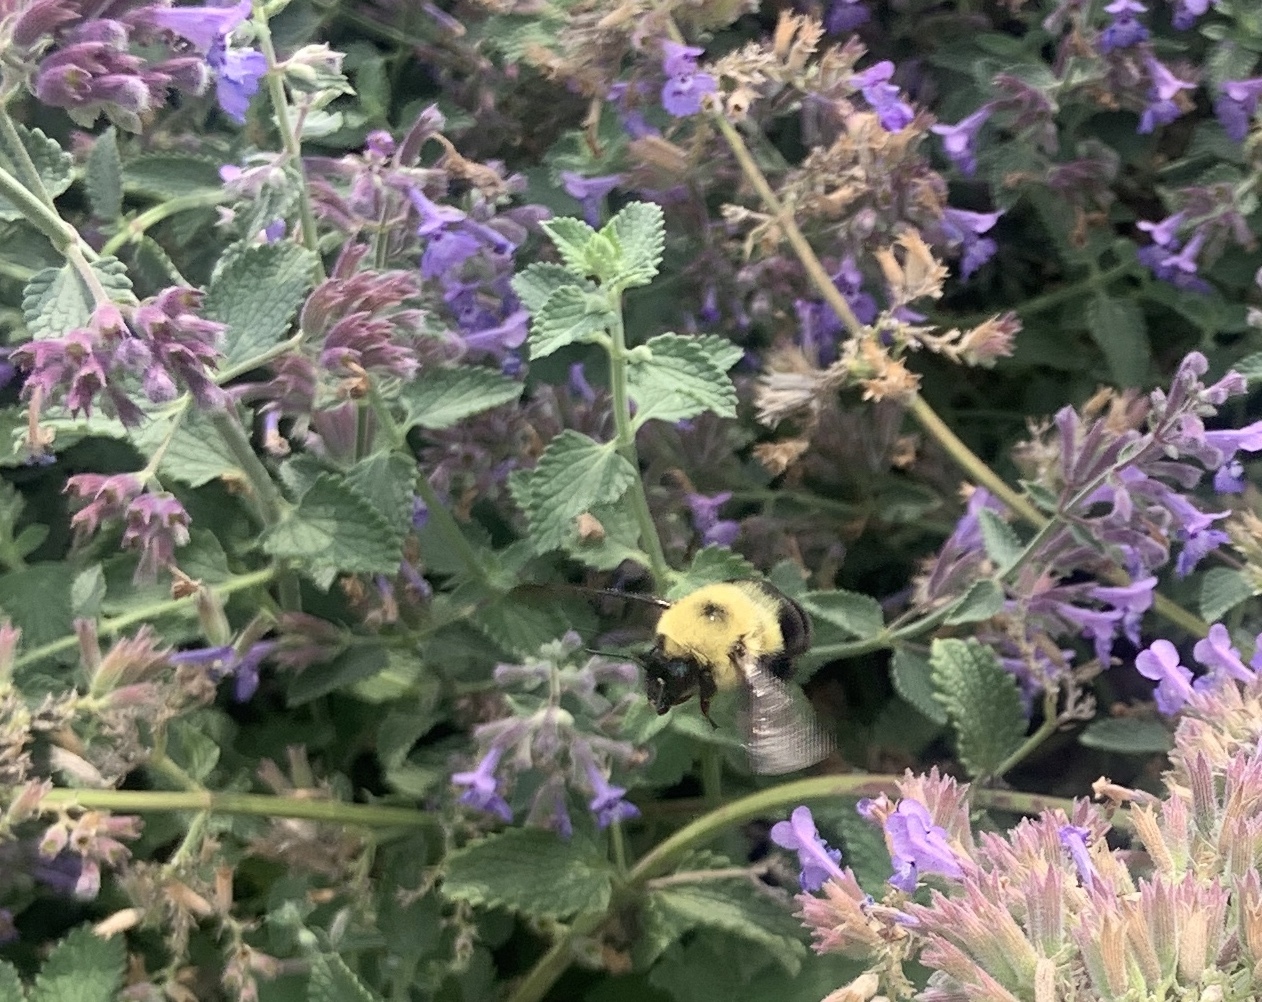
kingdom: Animalia
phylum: Arthropoda
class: Insecta
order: Hymenoptera
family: Apidae
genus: Bombus
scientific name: Bombus bimaculatus
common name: Two-spotted bumble bee
